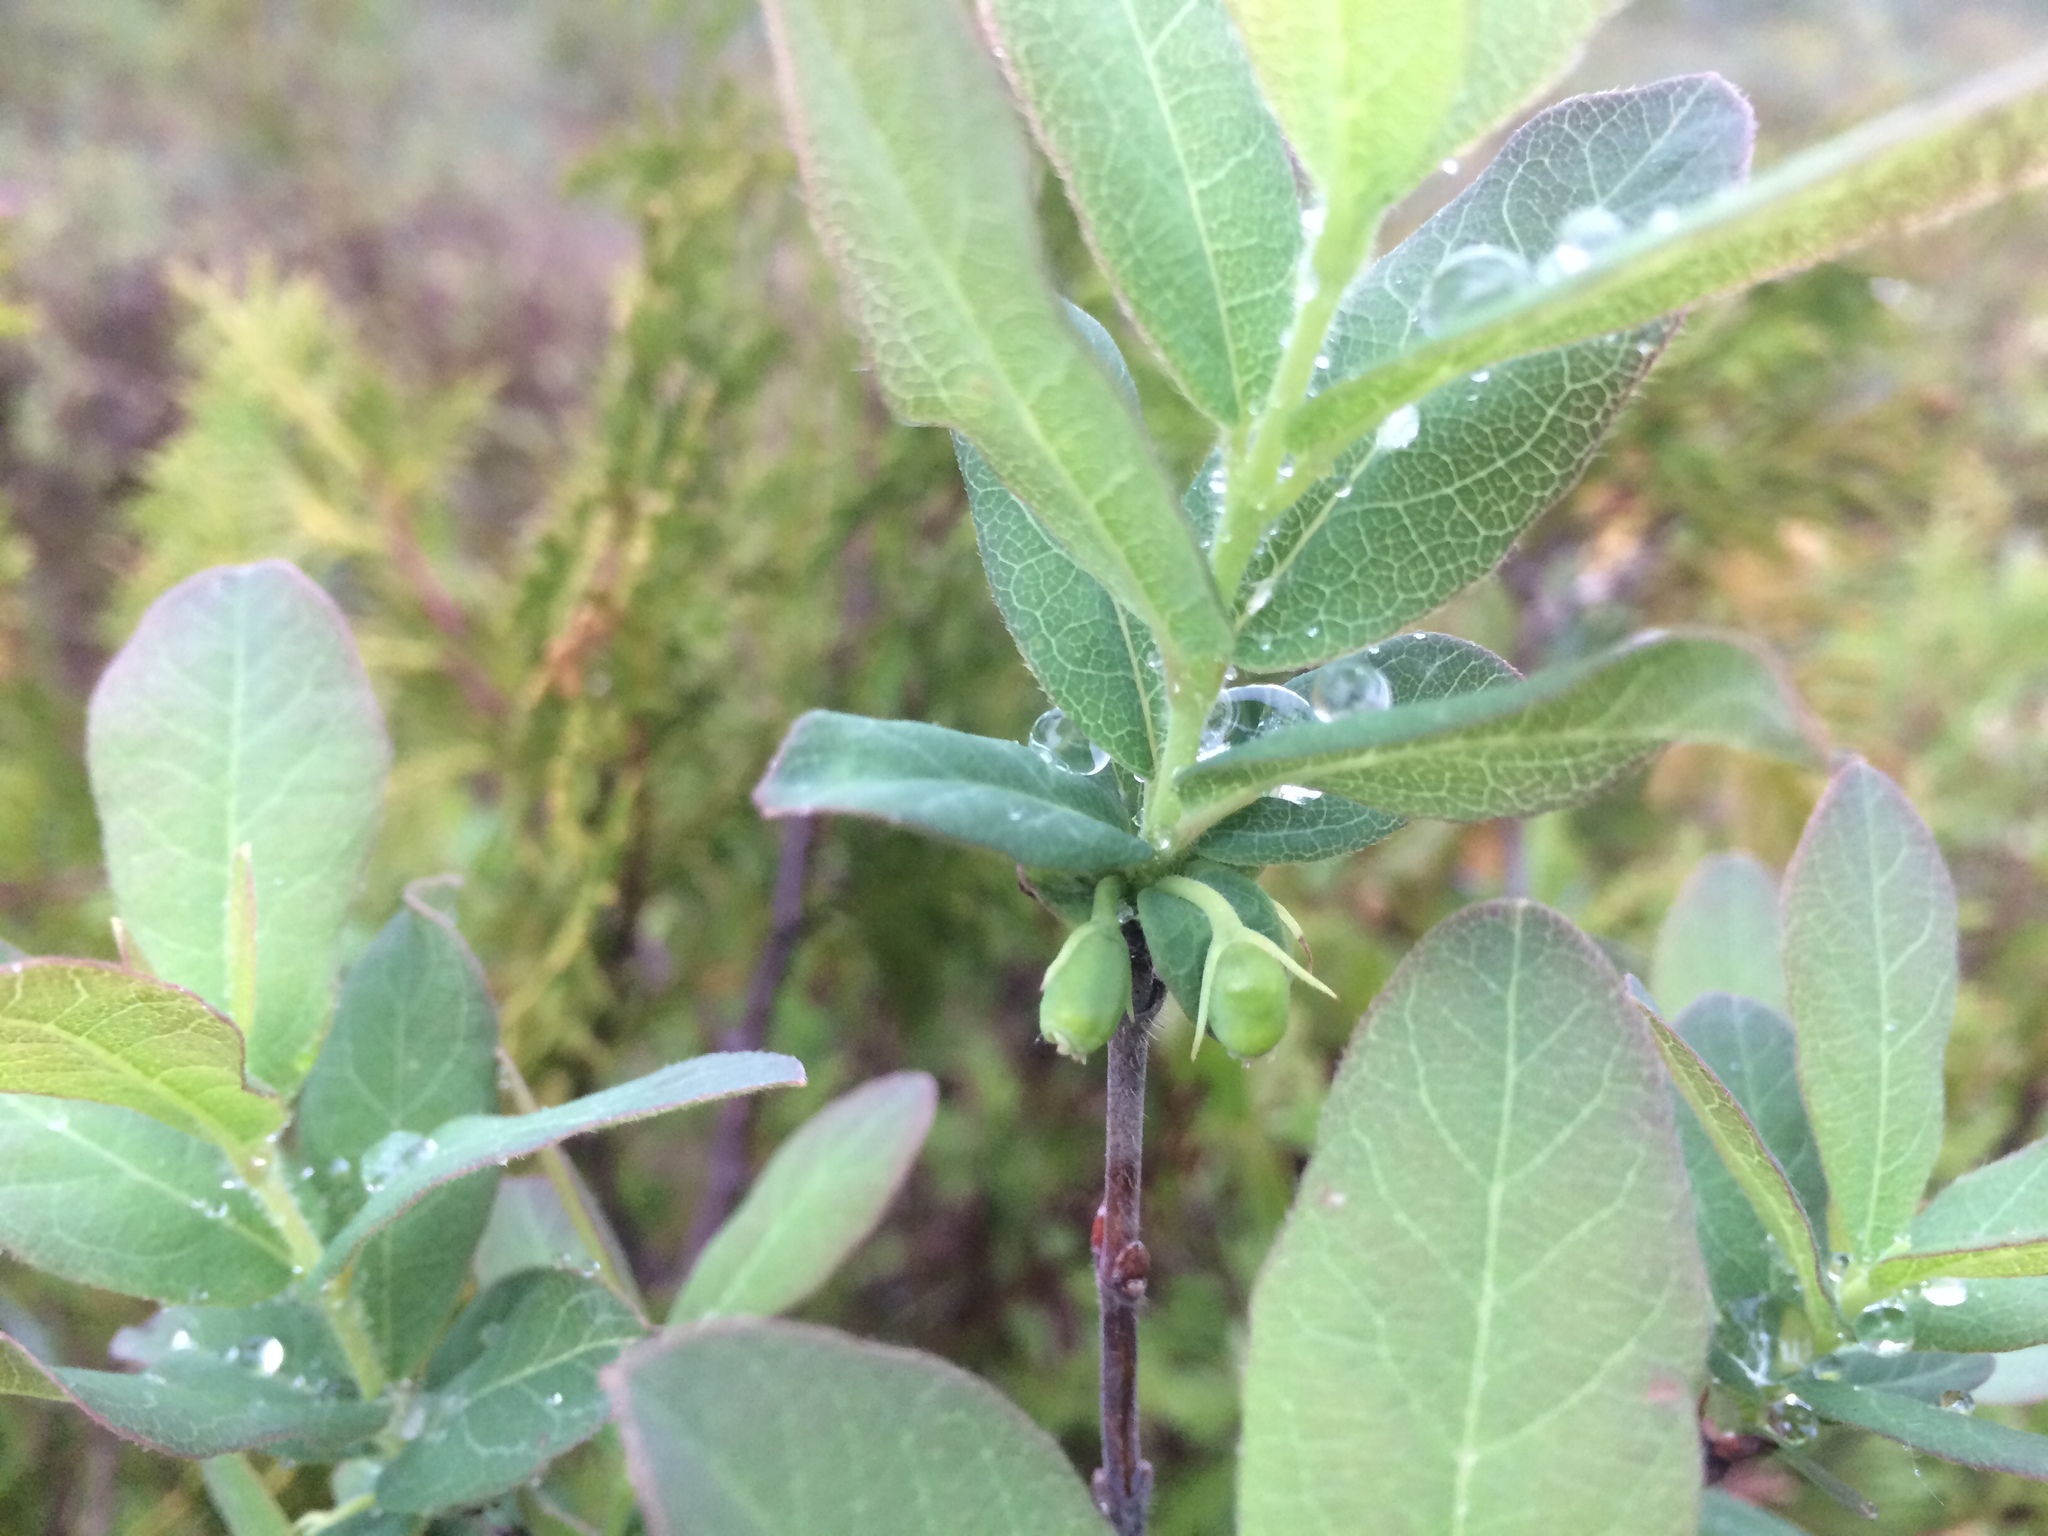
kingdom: Plantae
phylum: Tracheophyta
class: Magnoliopsida
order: Dipsacales
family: Caprifoliaceae
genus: Lonicera
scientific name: Lonicera villosa
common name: Mountain fly-honeysuckle
